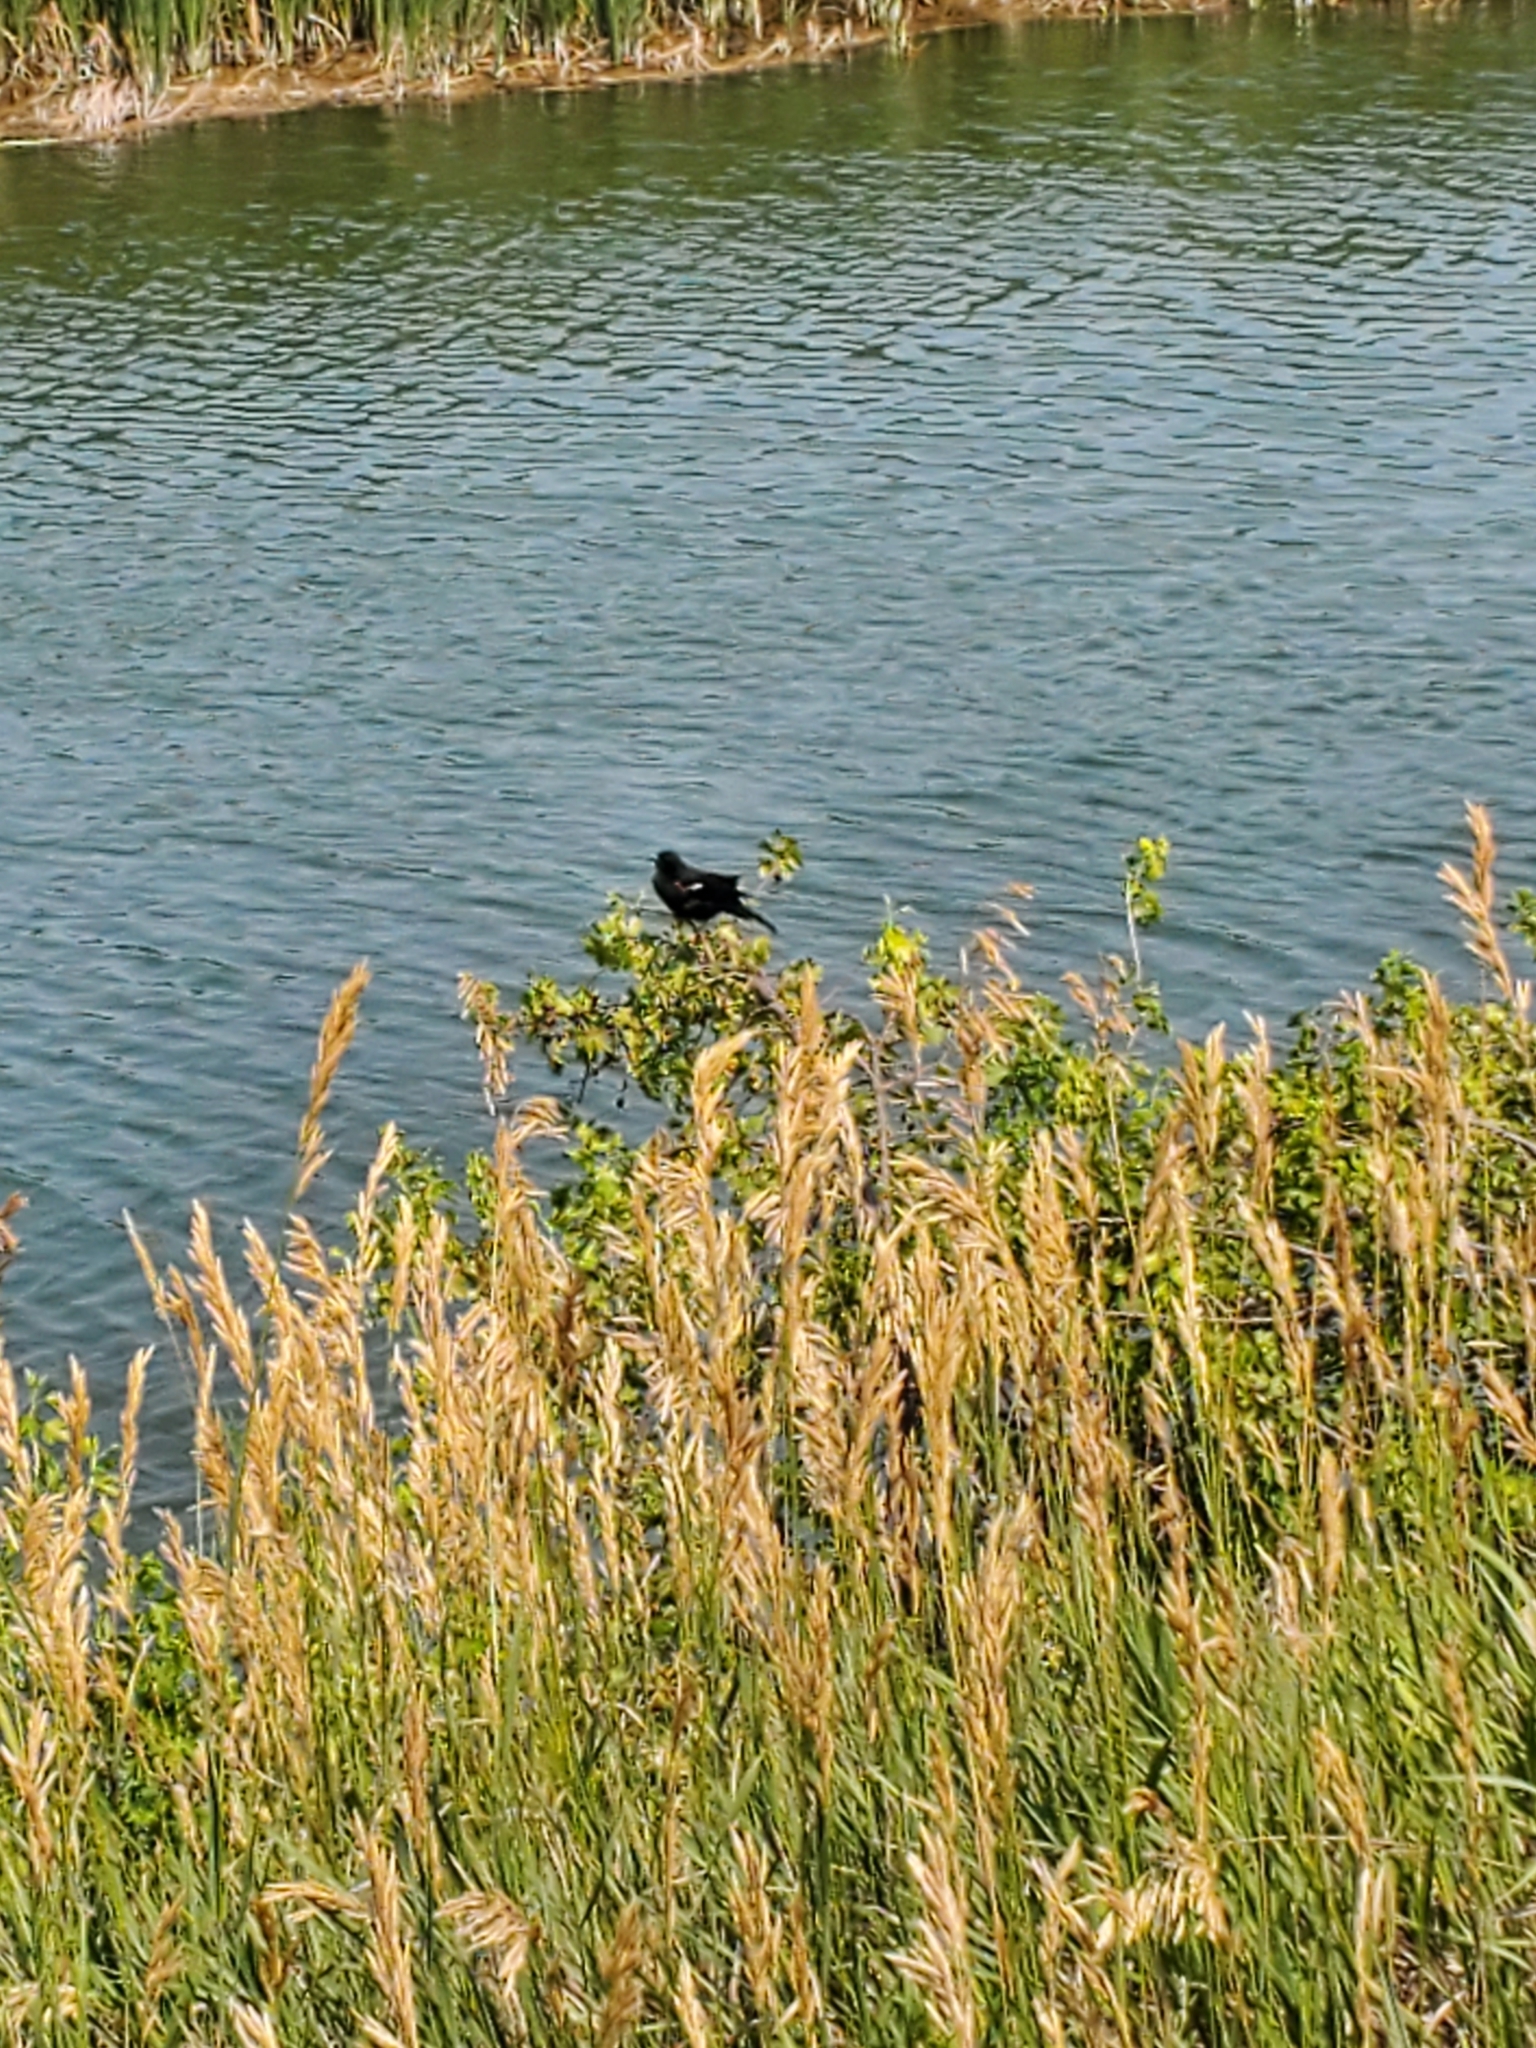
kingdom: Animalia
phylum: Chordata
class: Aves
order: Passeriformes
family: Icteridae
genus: Agelaius
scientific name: Agelaius phoeniceus
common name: Red-winged blackbird
